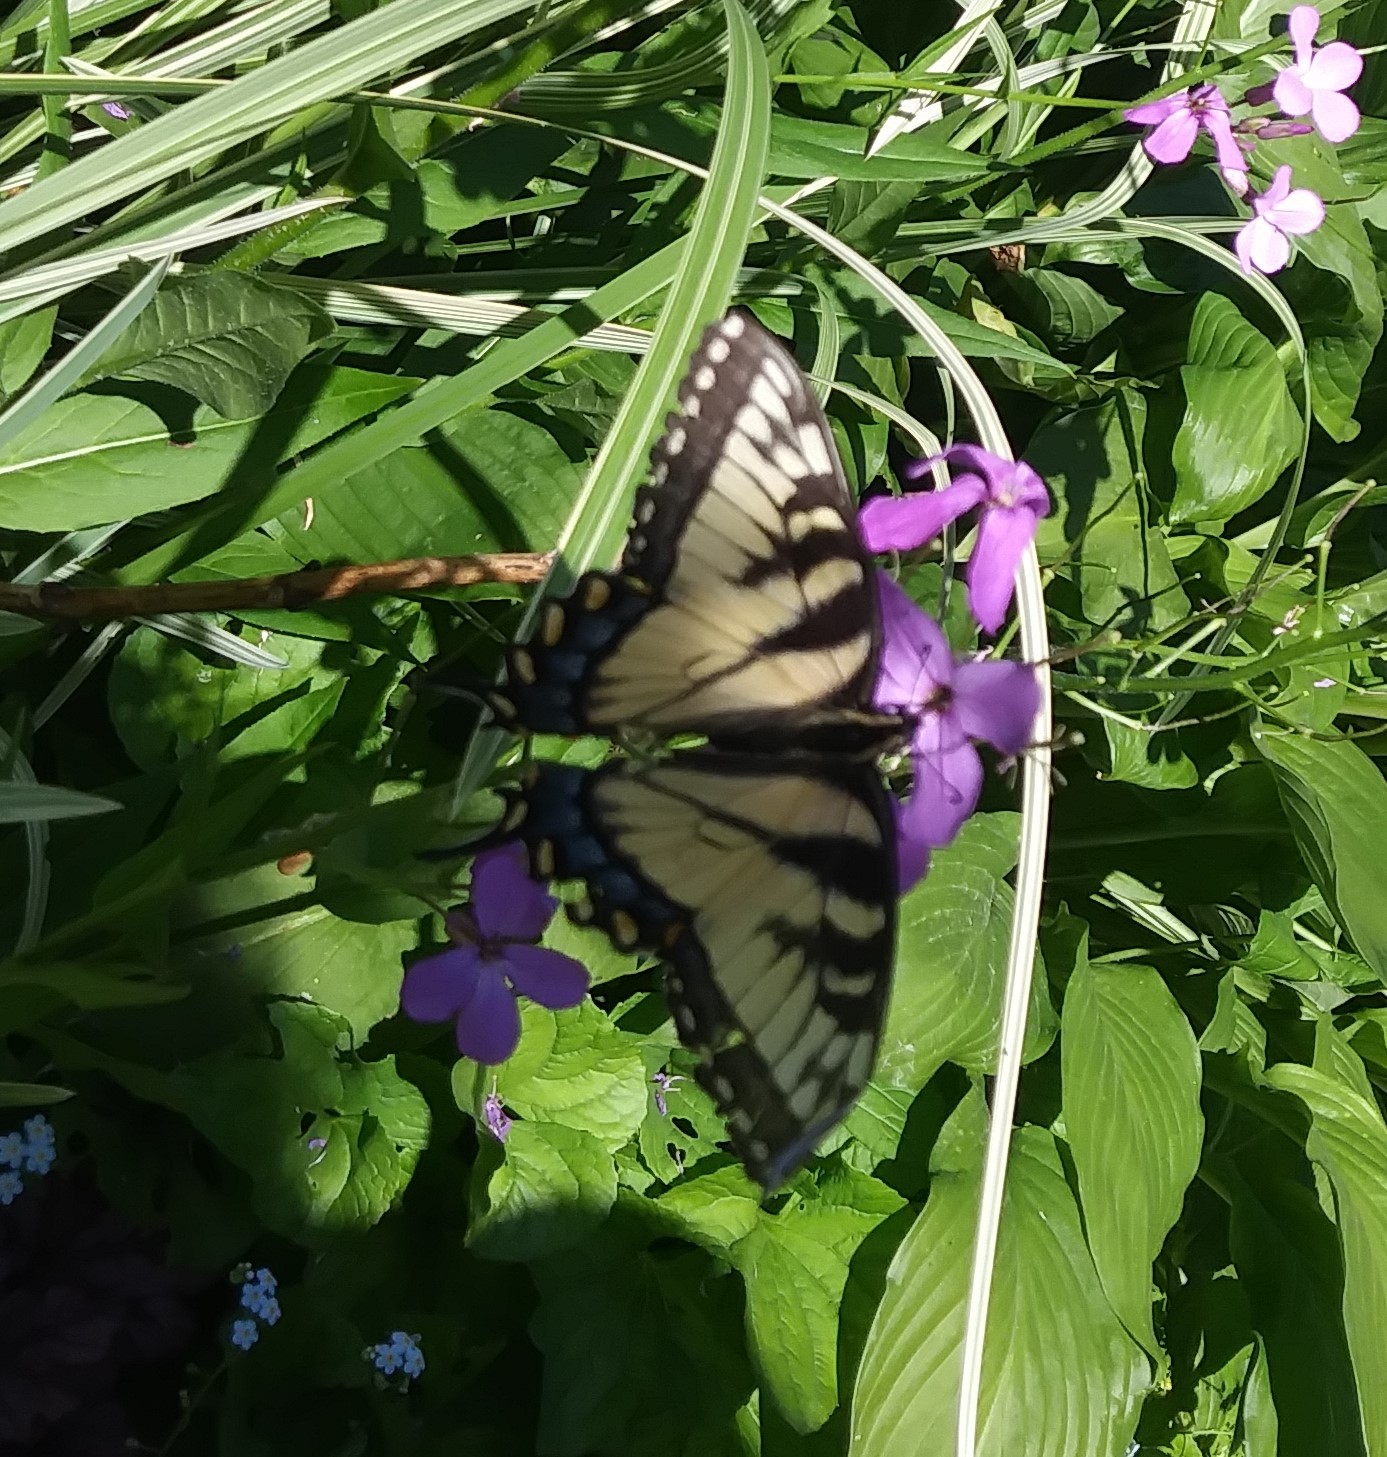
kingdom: Animalia
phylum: Arthropoda
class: Insecta
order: Lepidoptera
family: Papilionidae
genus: Papilio
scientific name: Papilio glaucus
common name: Tiger swallowtail
